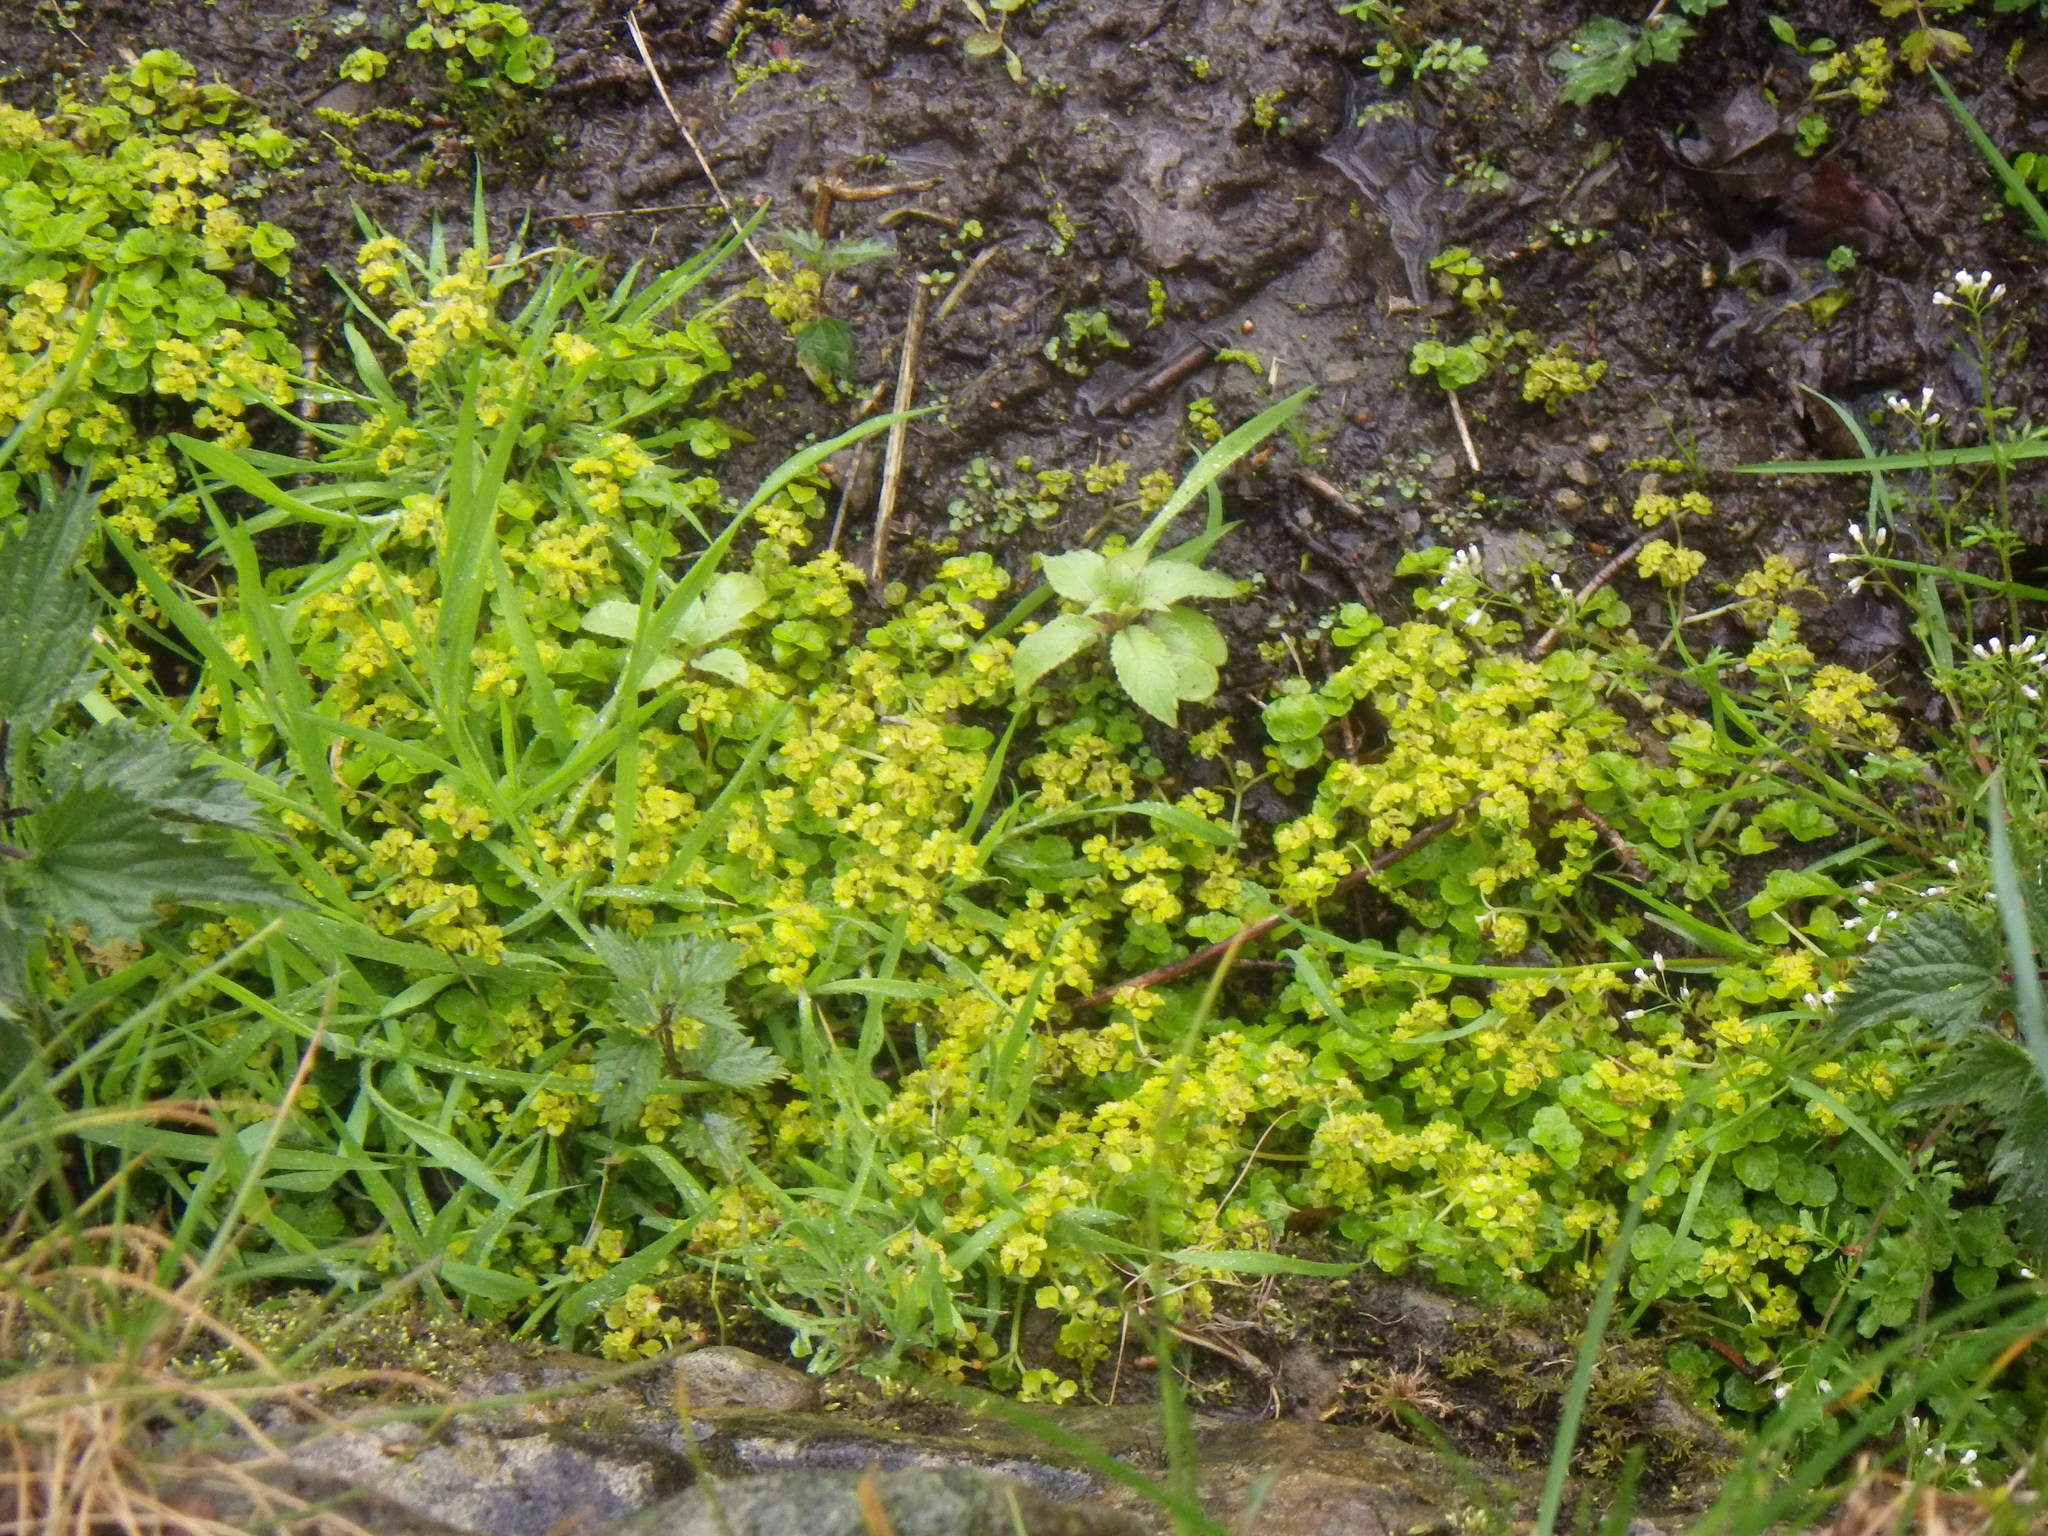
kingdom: Plantae
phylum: Tracheophyta
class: Magnoliopsida
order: Saxifragales
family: Saxifragaceae
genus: Chrysosplenium
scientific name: Chrysosplenium oppositifolium
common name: Opposite-leaved golden-saxifrage
